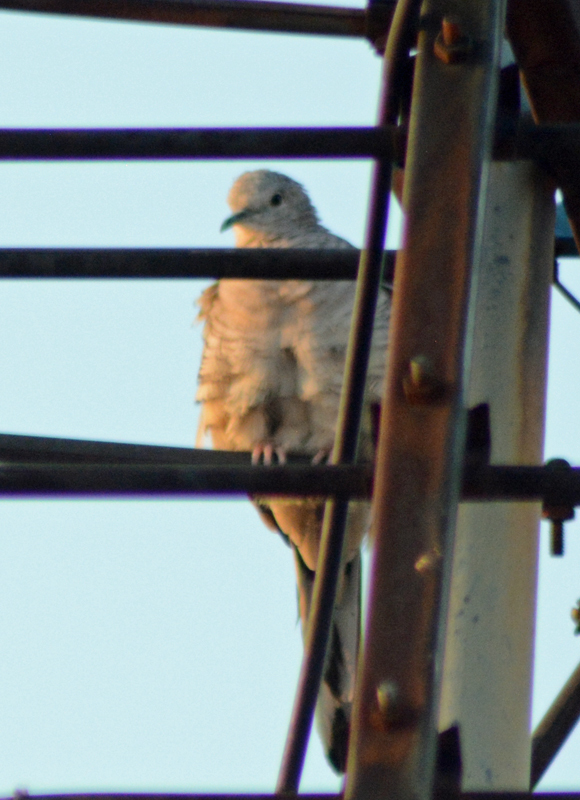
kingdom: Animalia
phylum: Chordata
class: Aves
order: Columbiformes
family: Columbidae
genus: Columbina
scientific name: Columbina inca
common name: Inca dove
